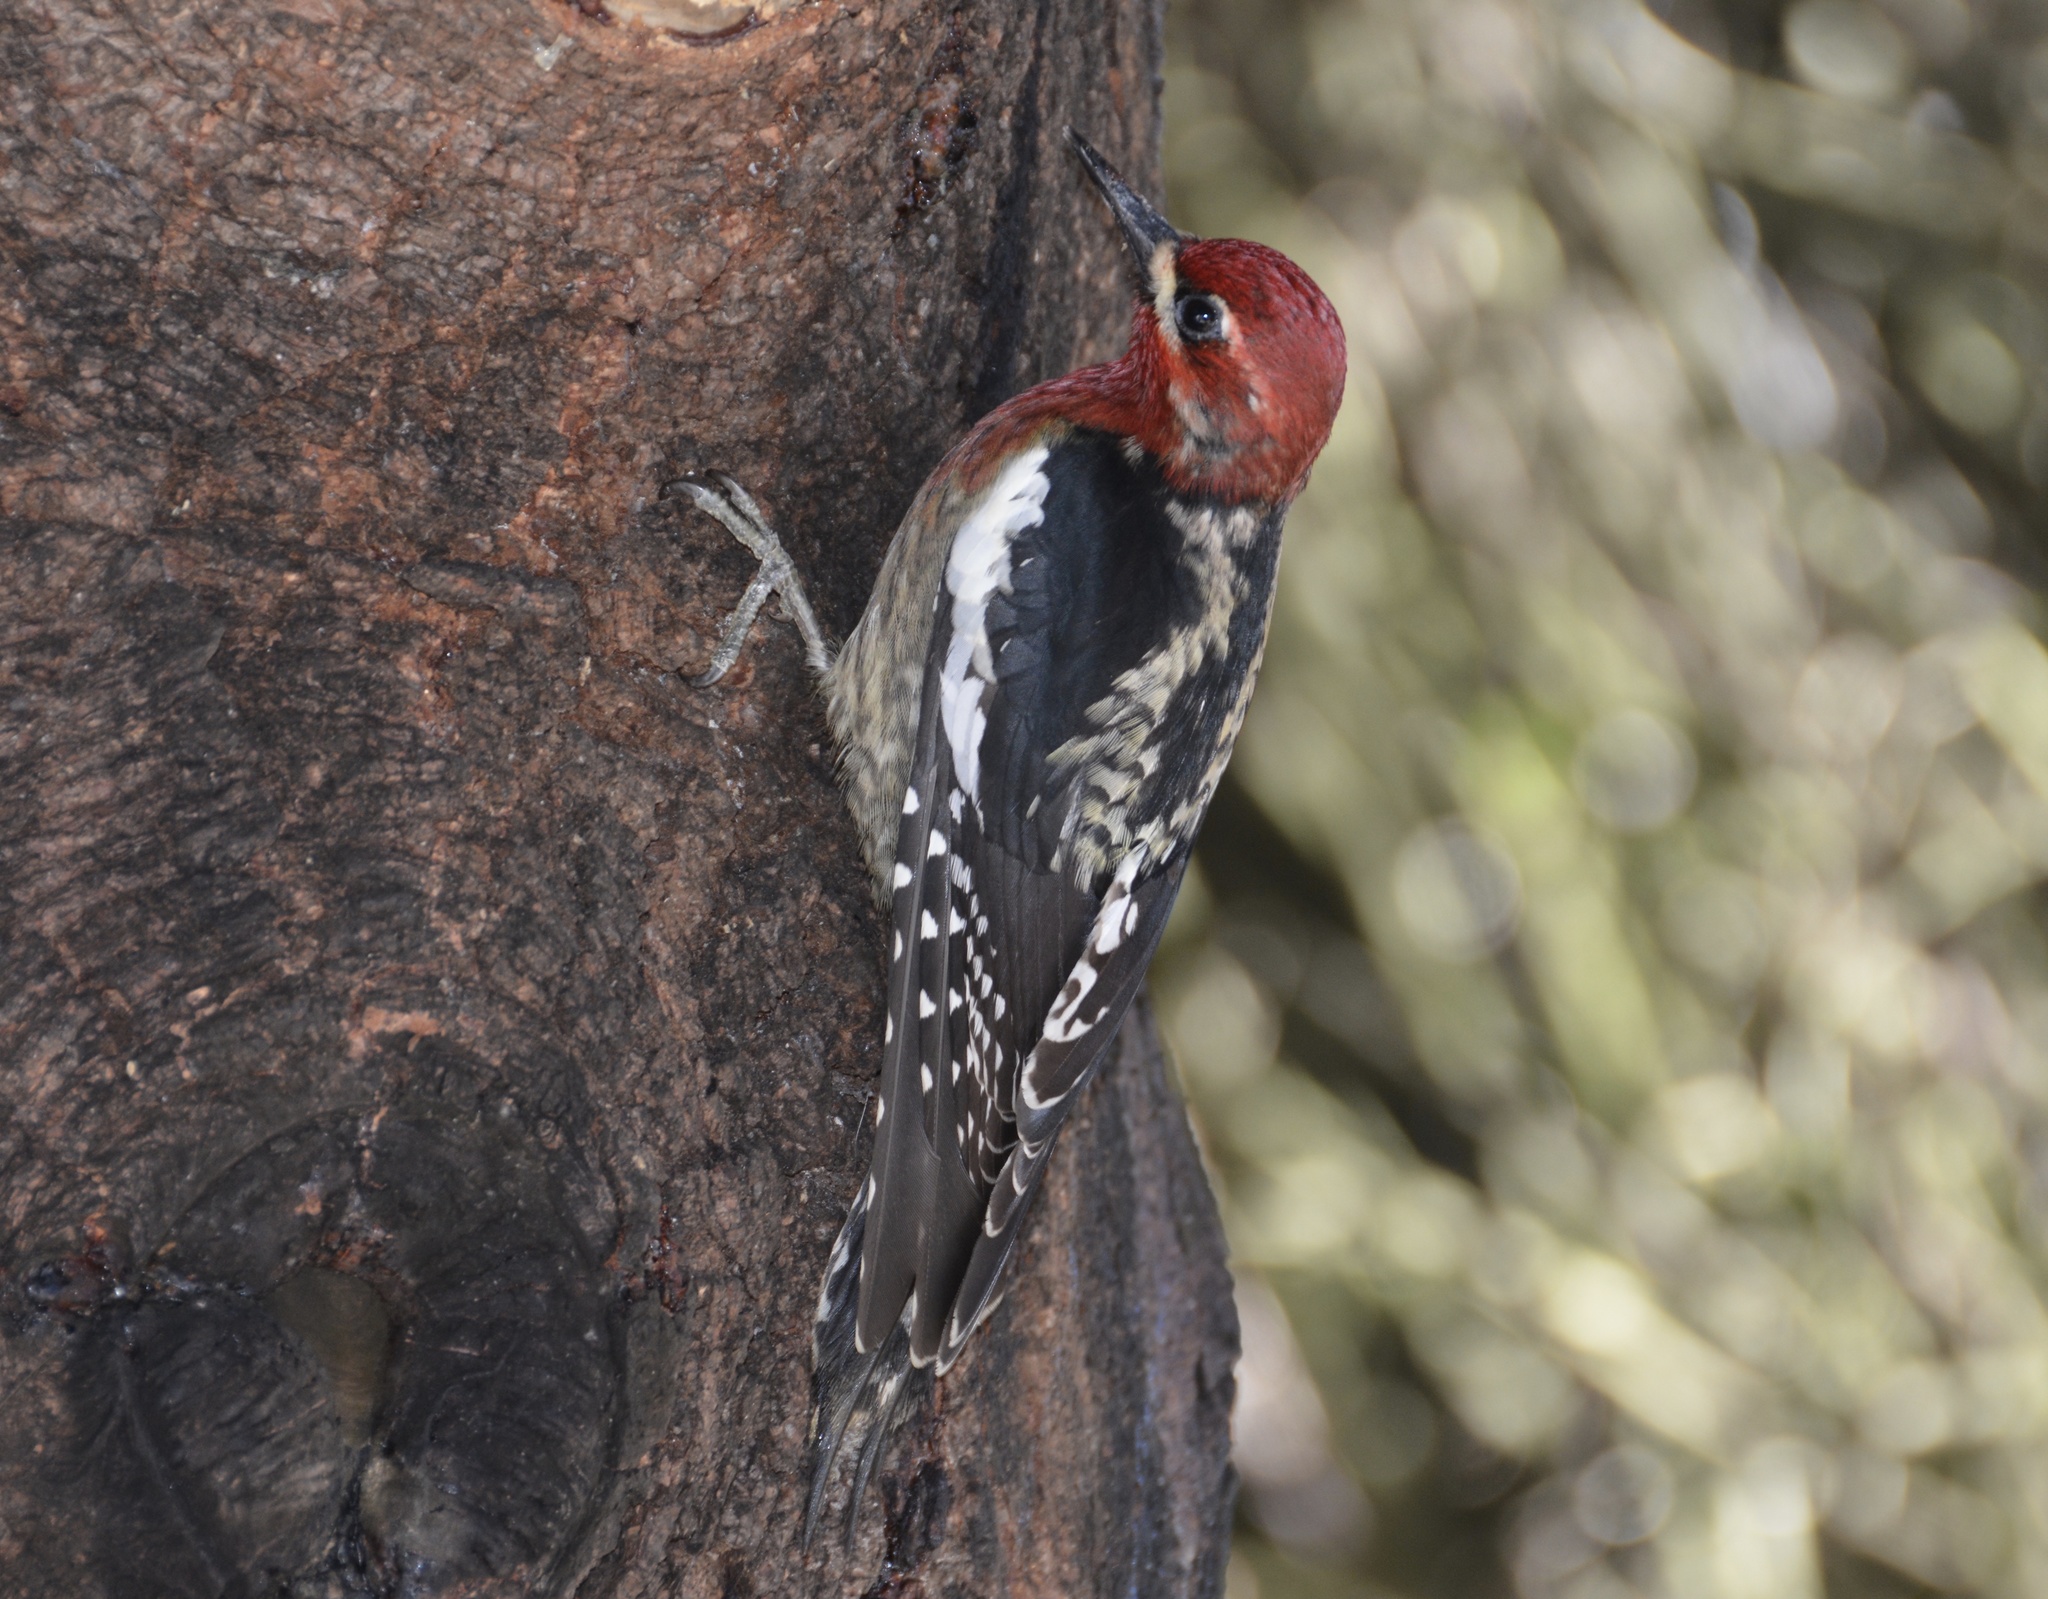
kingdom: Animalia
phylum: Chordata
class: Aves
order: Piciformes
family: Picidae
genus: Sphyrapicus
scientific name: Sphyrapicus ruber
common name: Red-breasted sapsucker
